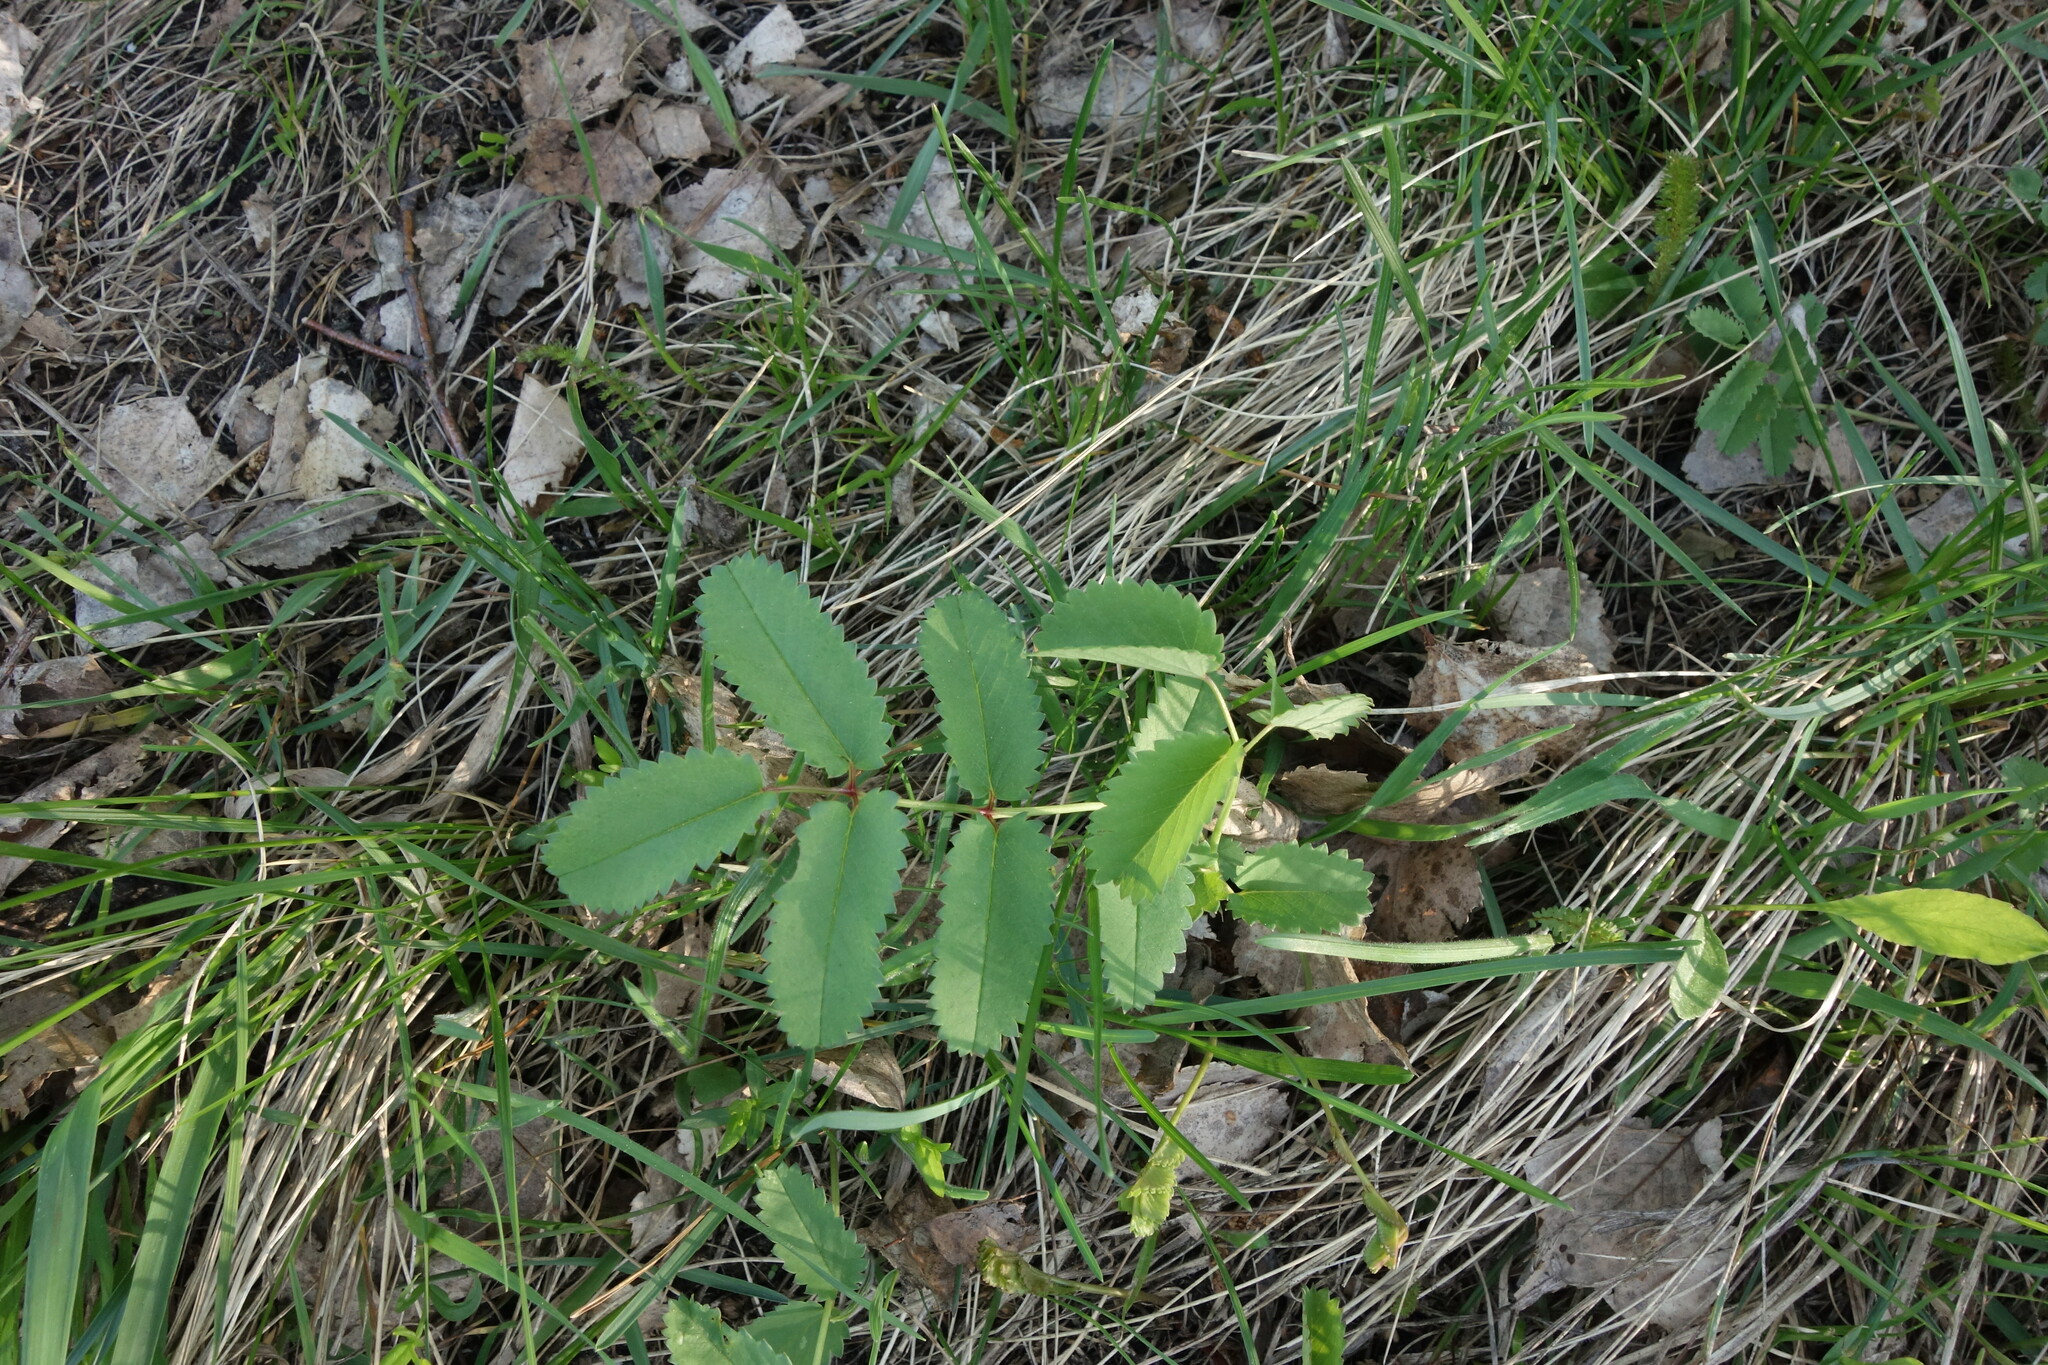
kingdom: Plantae
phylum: Tracheophyta
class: Magnoliopsida
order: Rosales
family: Rosaceae
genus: Sanguisorba
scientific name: Sanguisorba officinalis
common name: Great burnet
